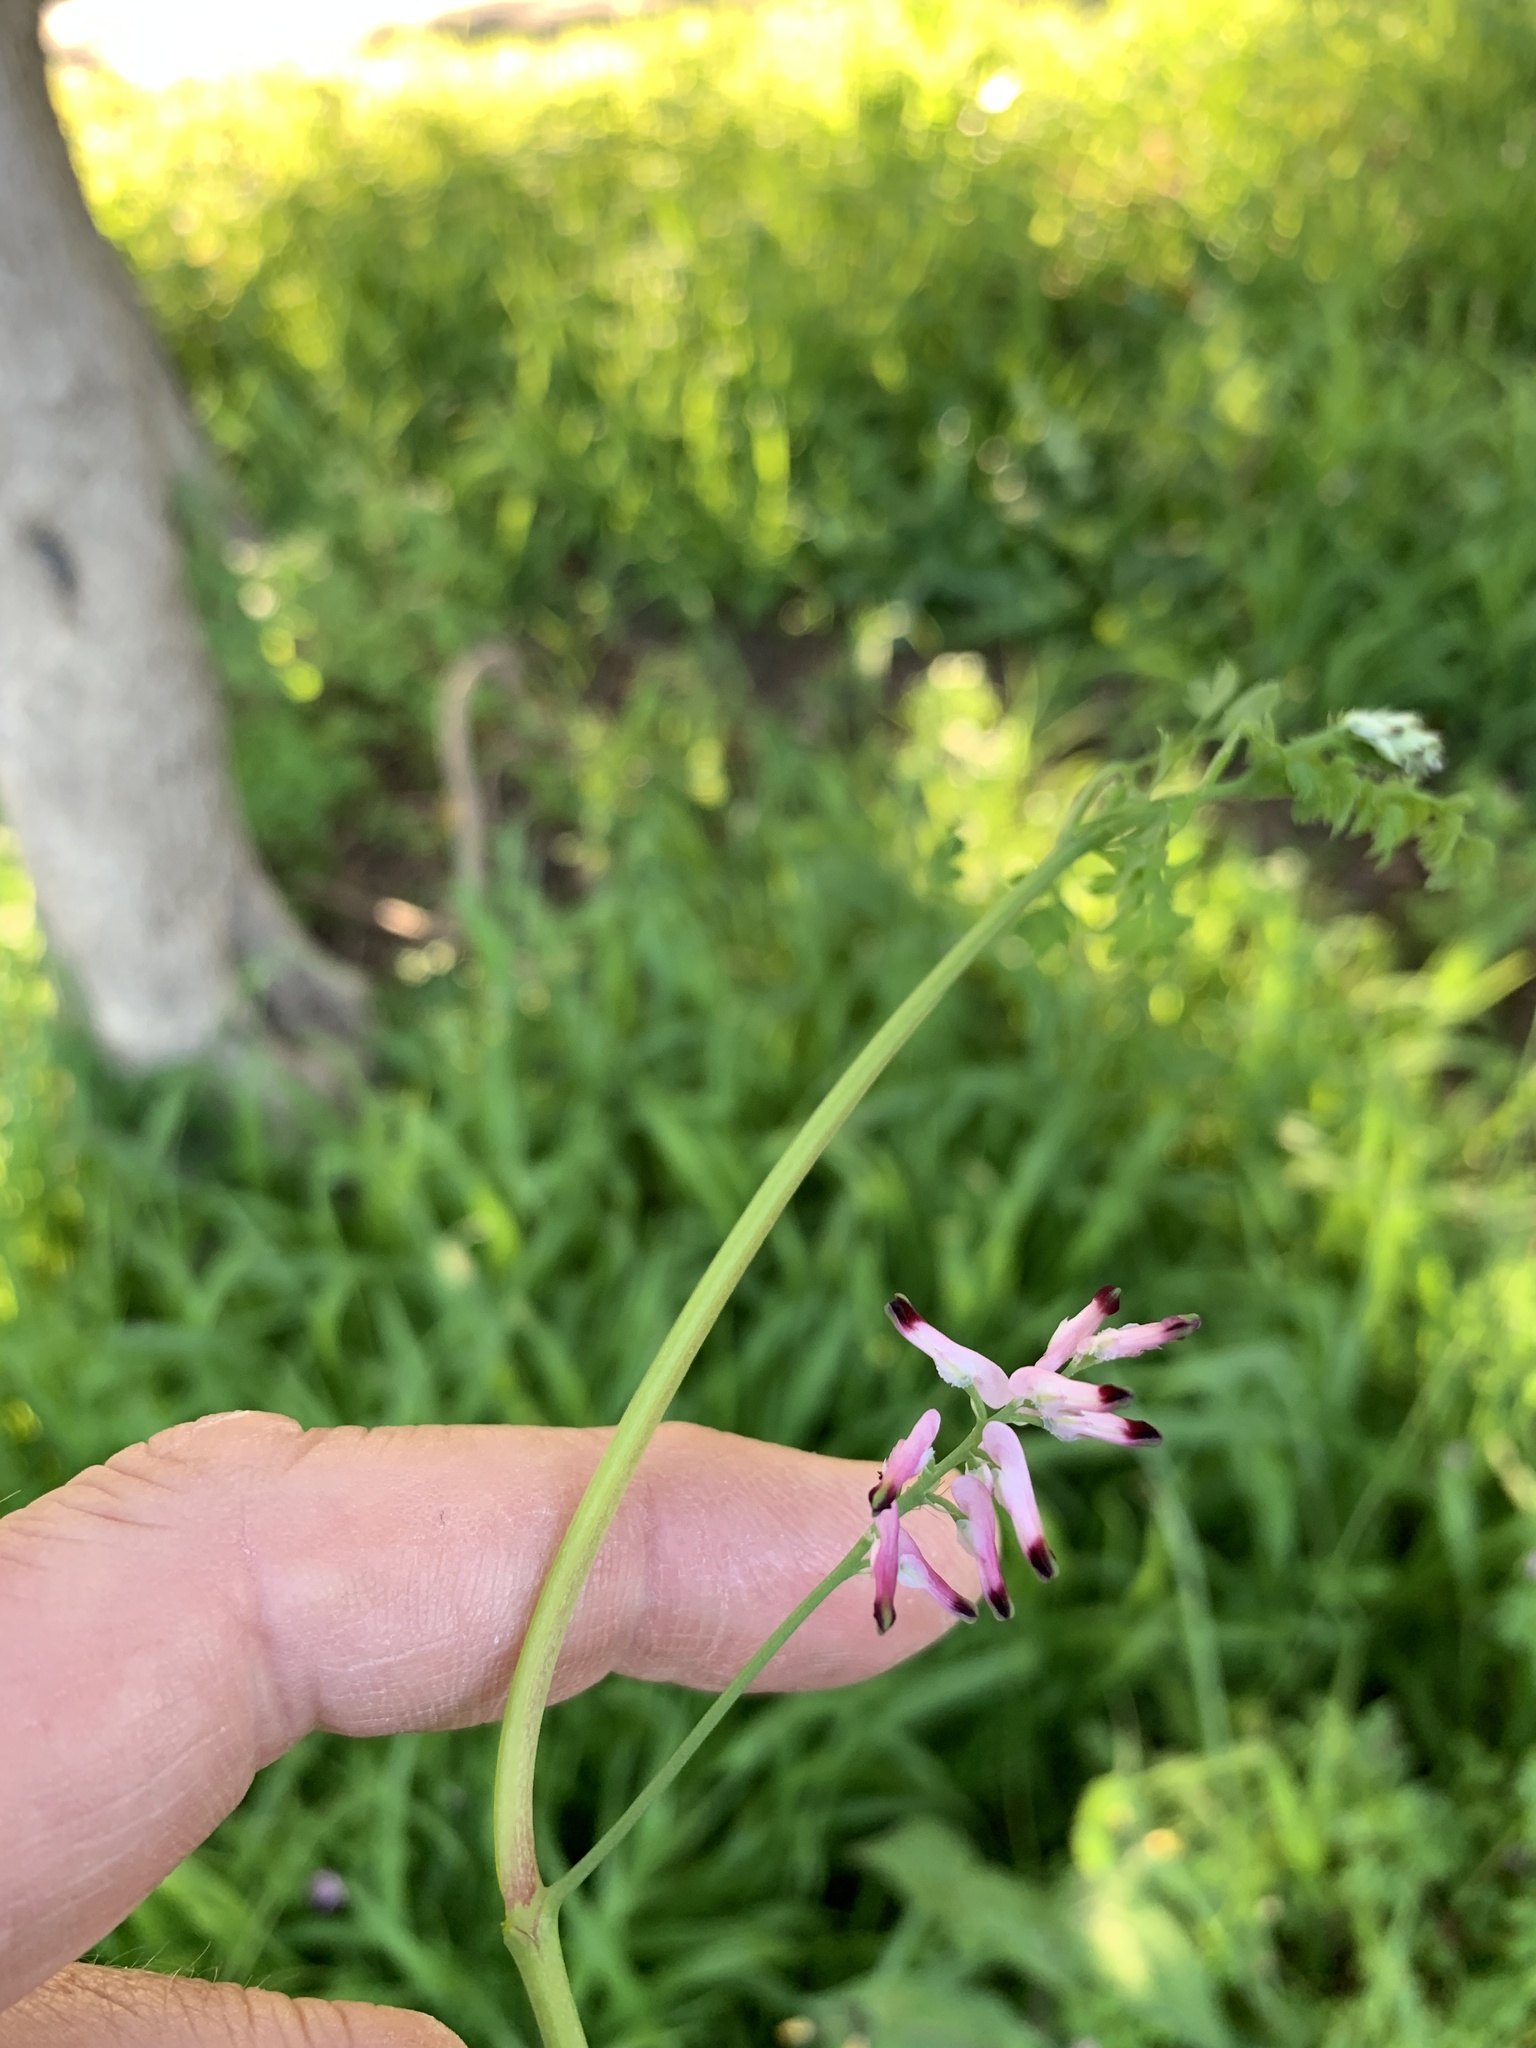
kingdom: Plantae
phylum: Tracheophyta
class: Magnoliopsida
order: Ranunculales
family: Papaveraceae
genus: Fumaria
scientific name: Fumaria muralis
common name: Common ramping-fumitory
